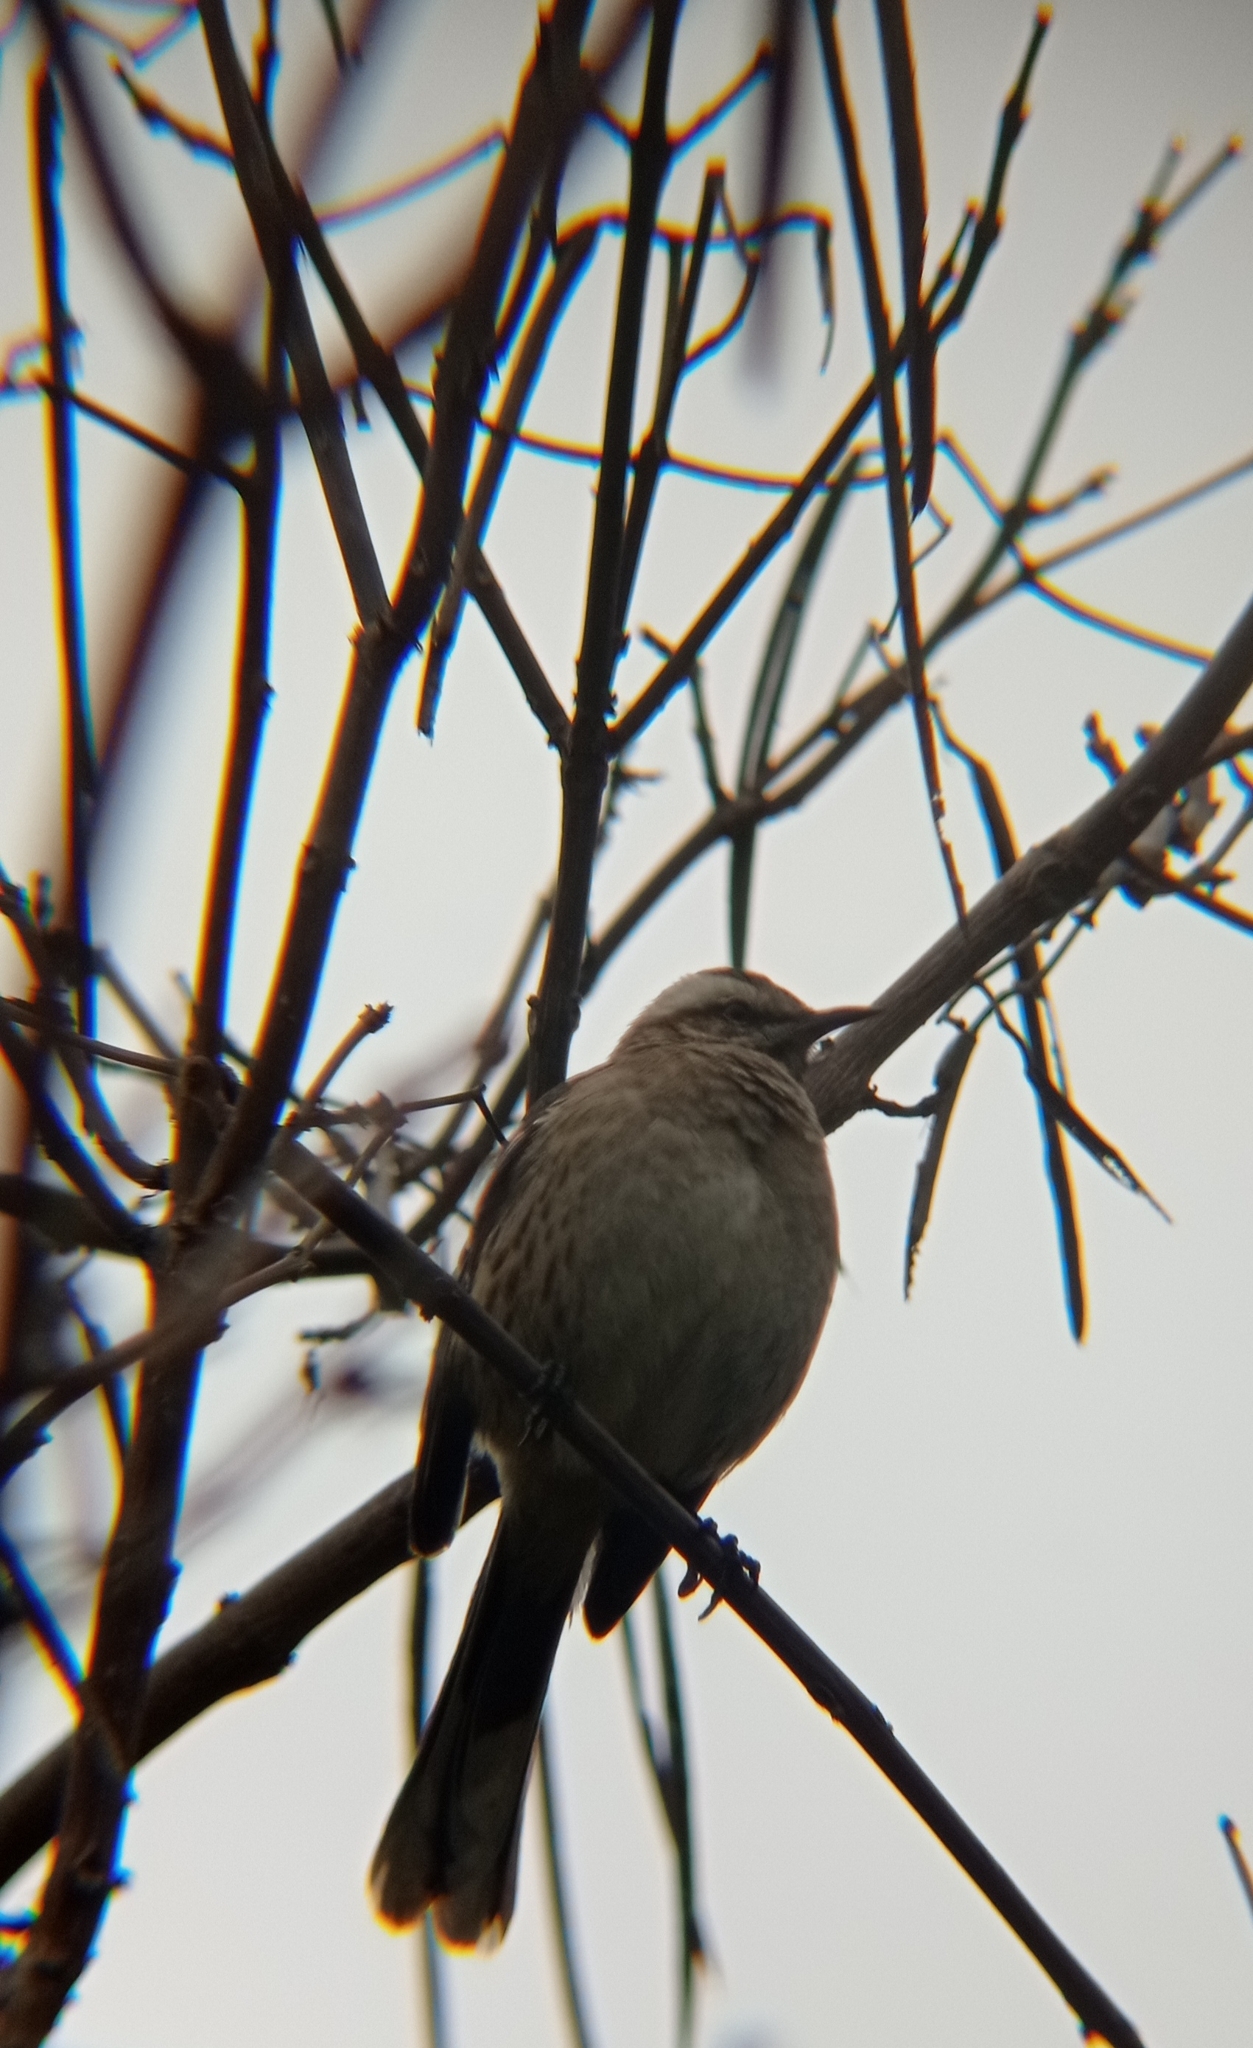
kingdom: Animalia
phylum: Chordata
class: Aves
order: Passeriformes
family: Mimidae
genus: Mimus
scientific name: Mimus thenca
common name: Chilean mockingbird
